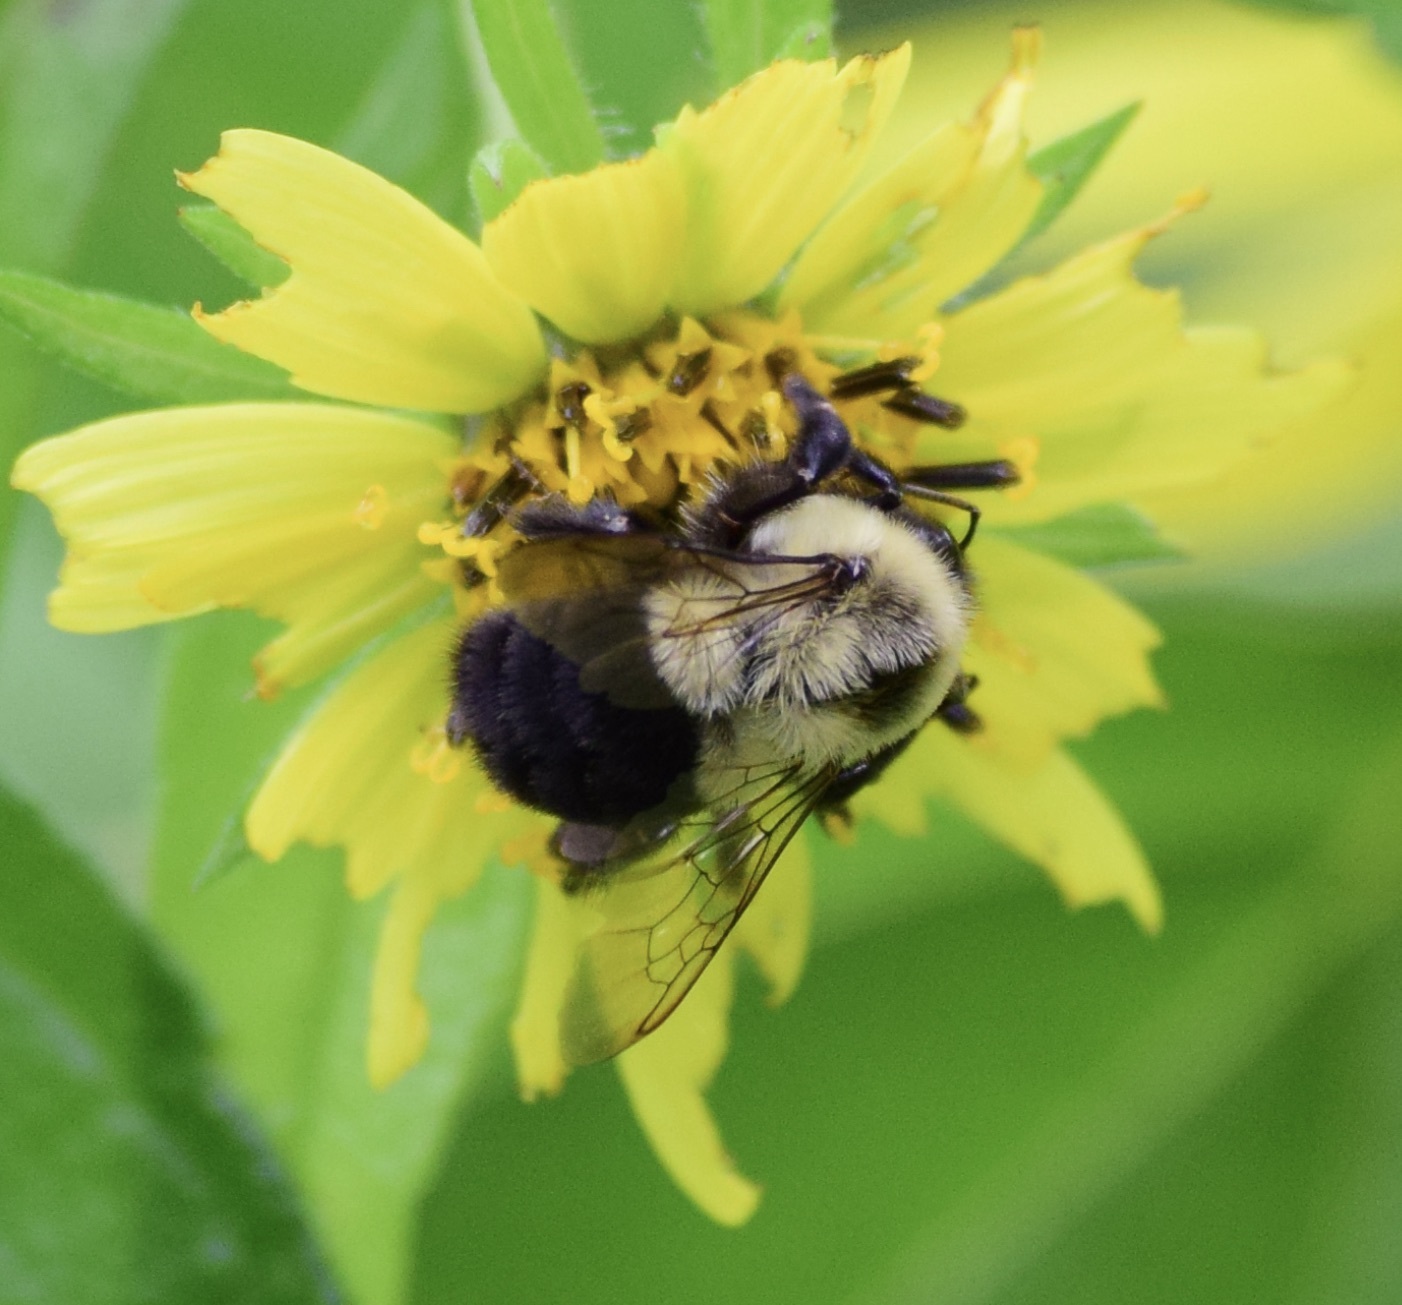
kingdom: Animalia
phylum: Arthropoda
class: Insecta
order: Hymenoptera
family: Apidae
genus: Bombus
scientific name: Bombus impatiens
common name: Common eastern bumble bee
